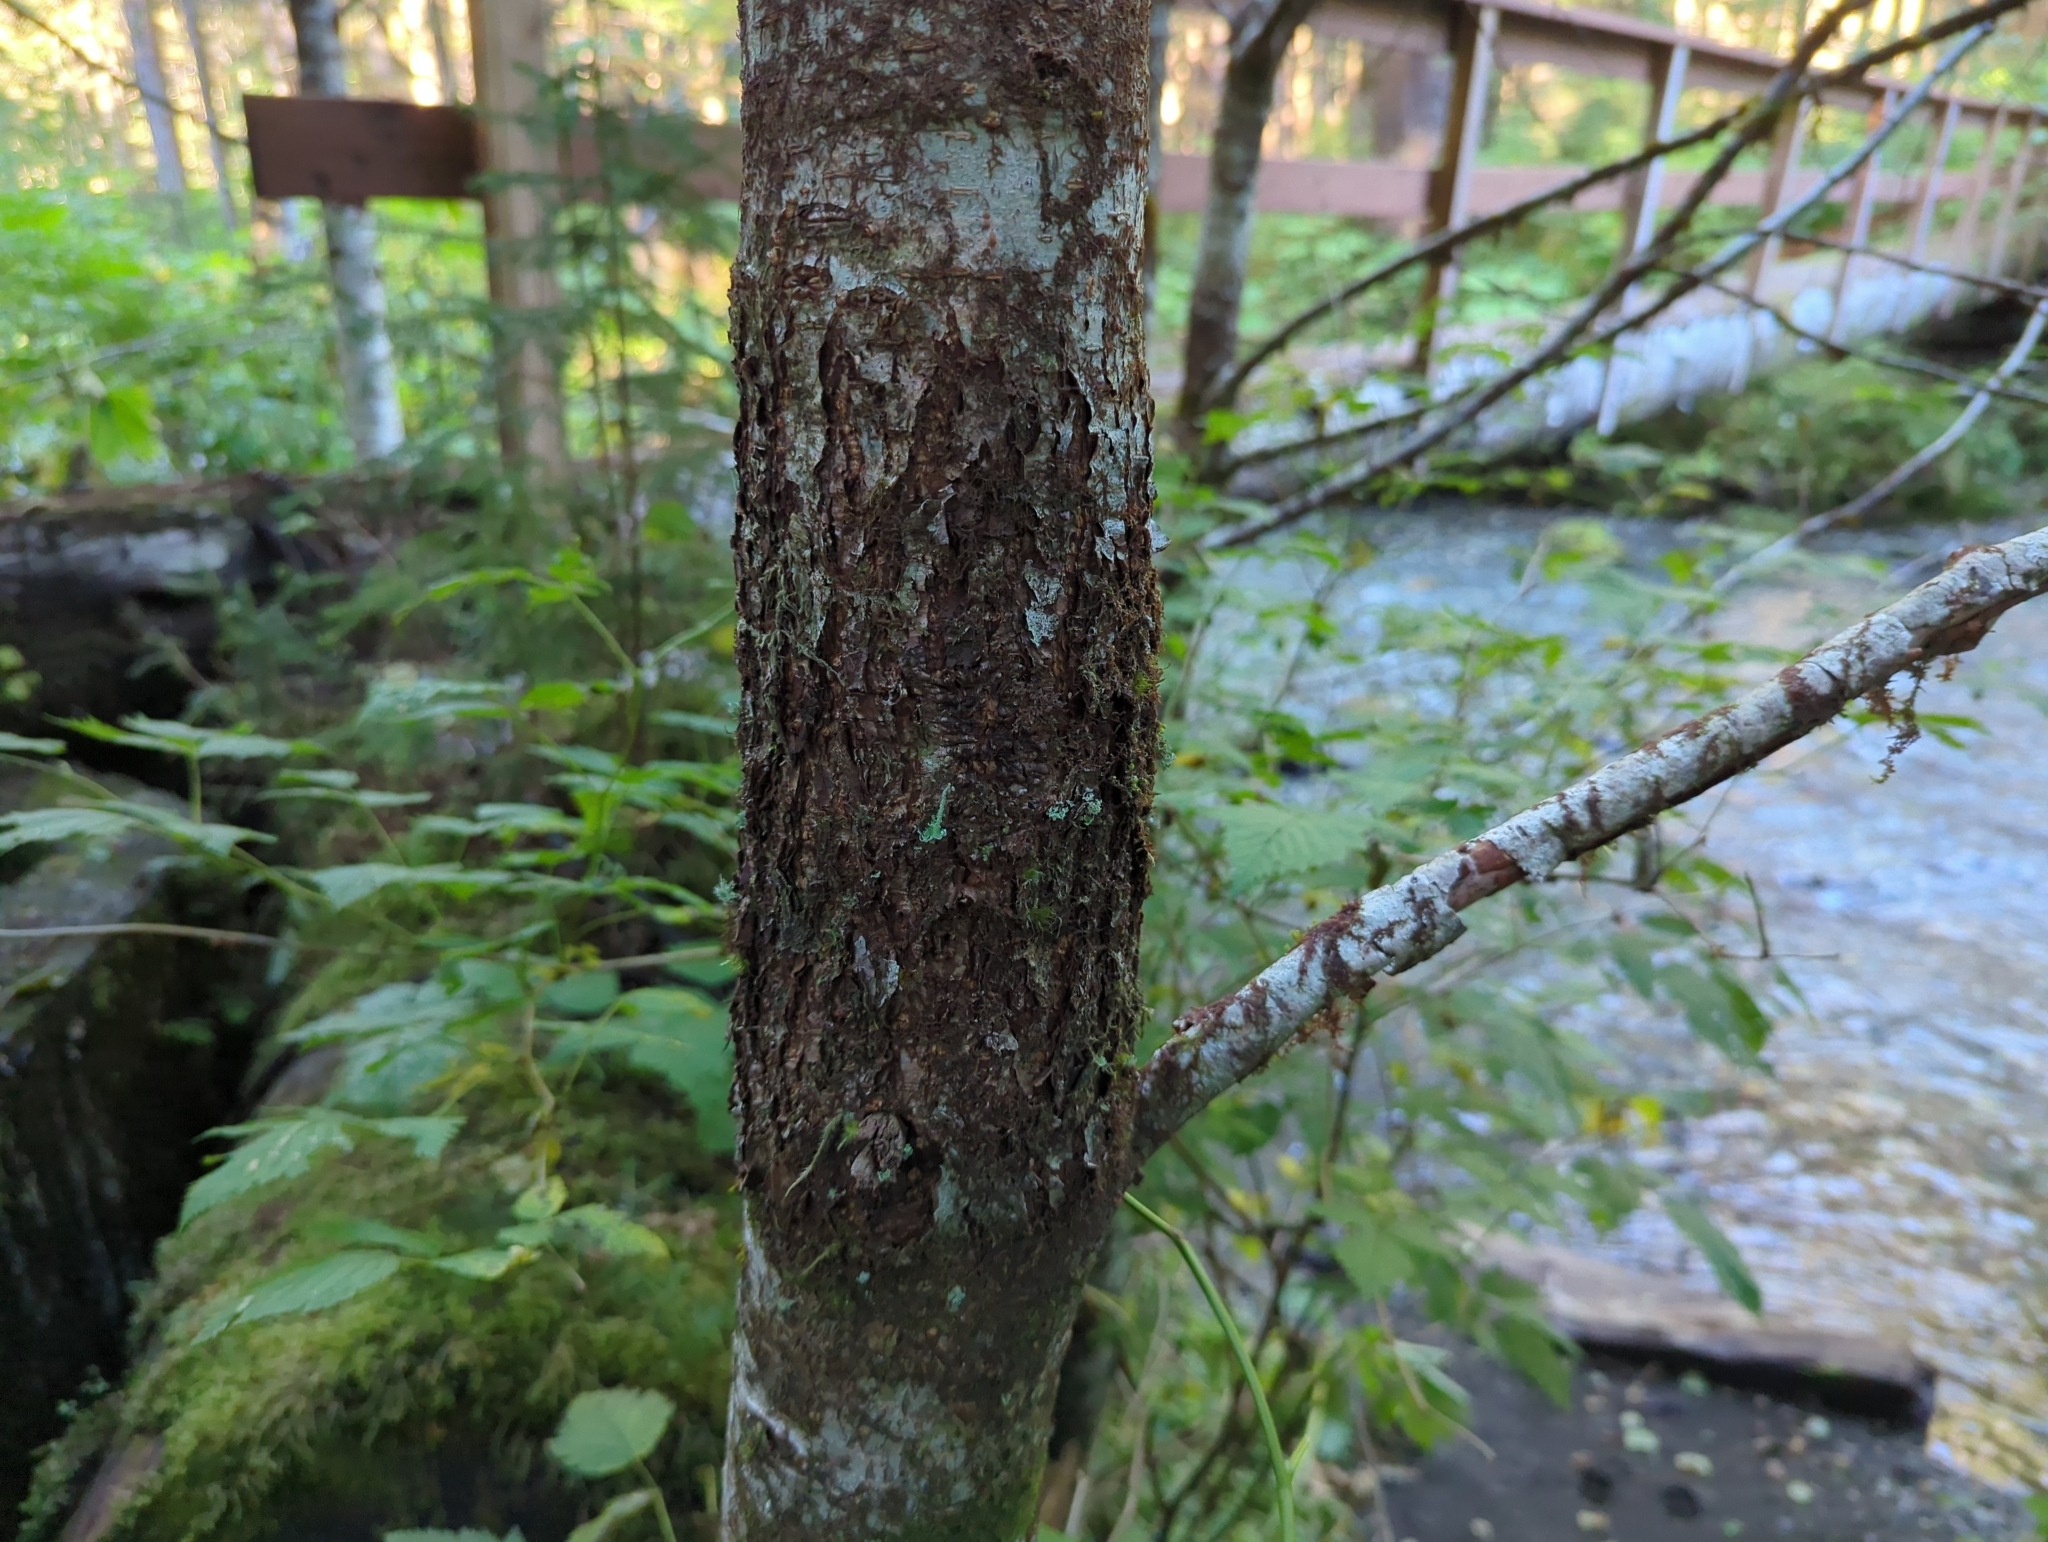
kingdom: Fungi
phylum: Ascomycota
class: Dothideomycetes
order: Pleosporales
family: Didymosphaeriaceae
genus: Didymosphaeria
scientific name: Didymosphaeria oregonensis
